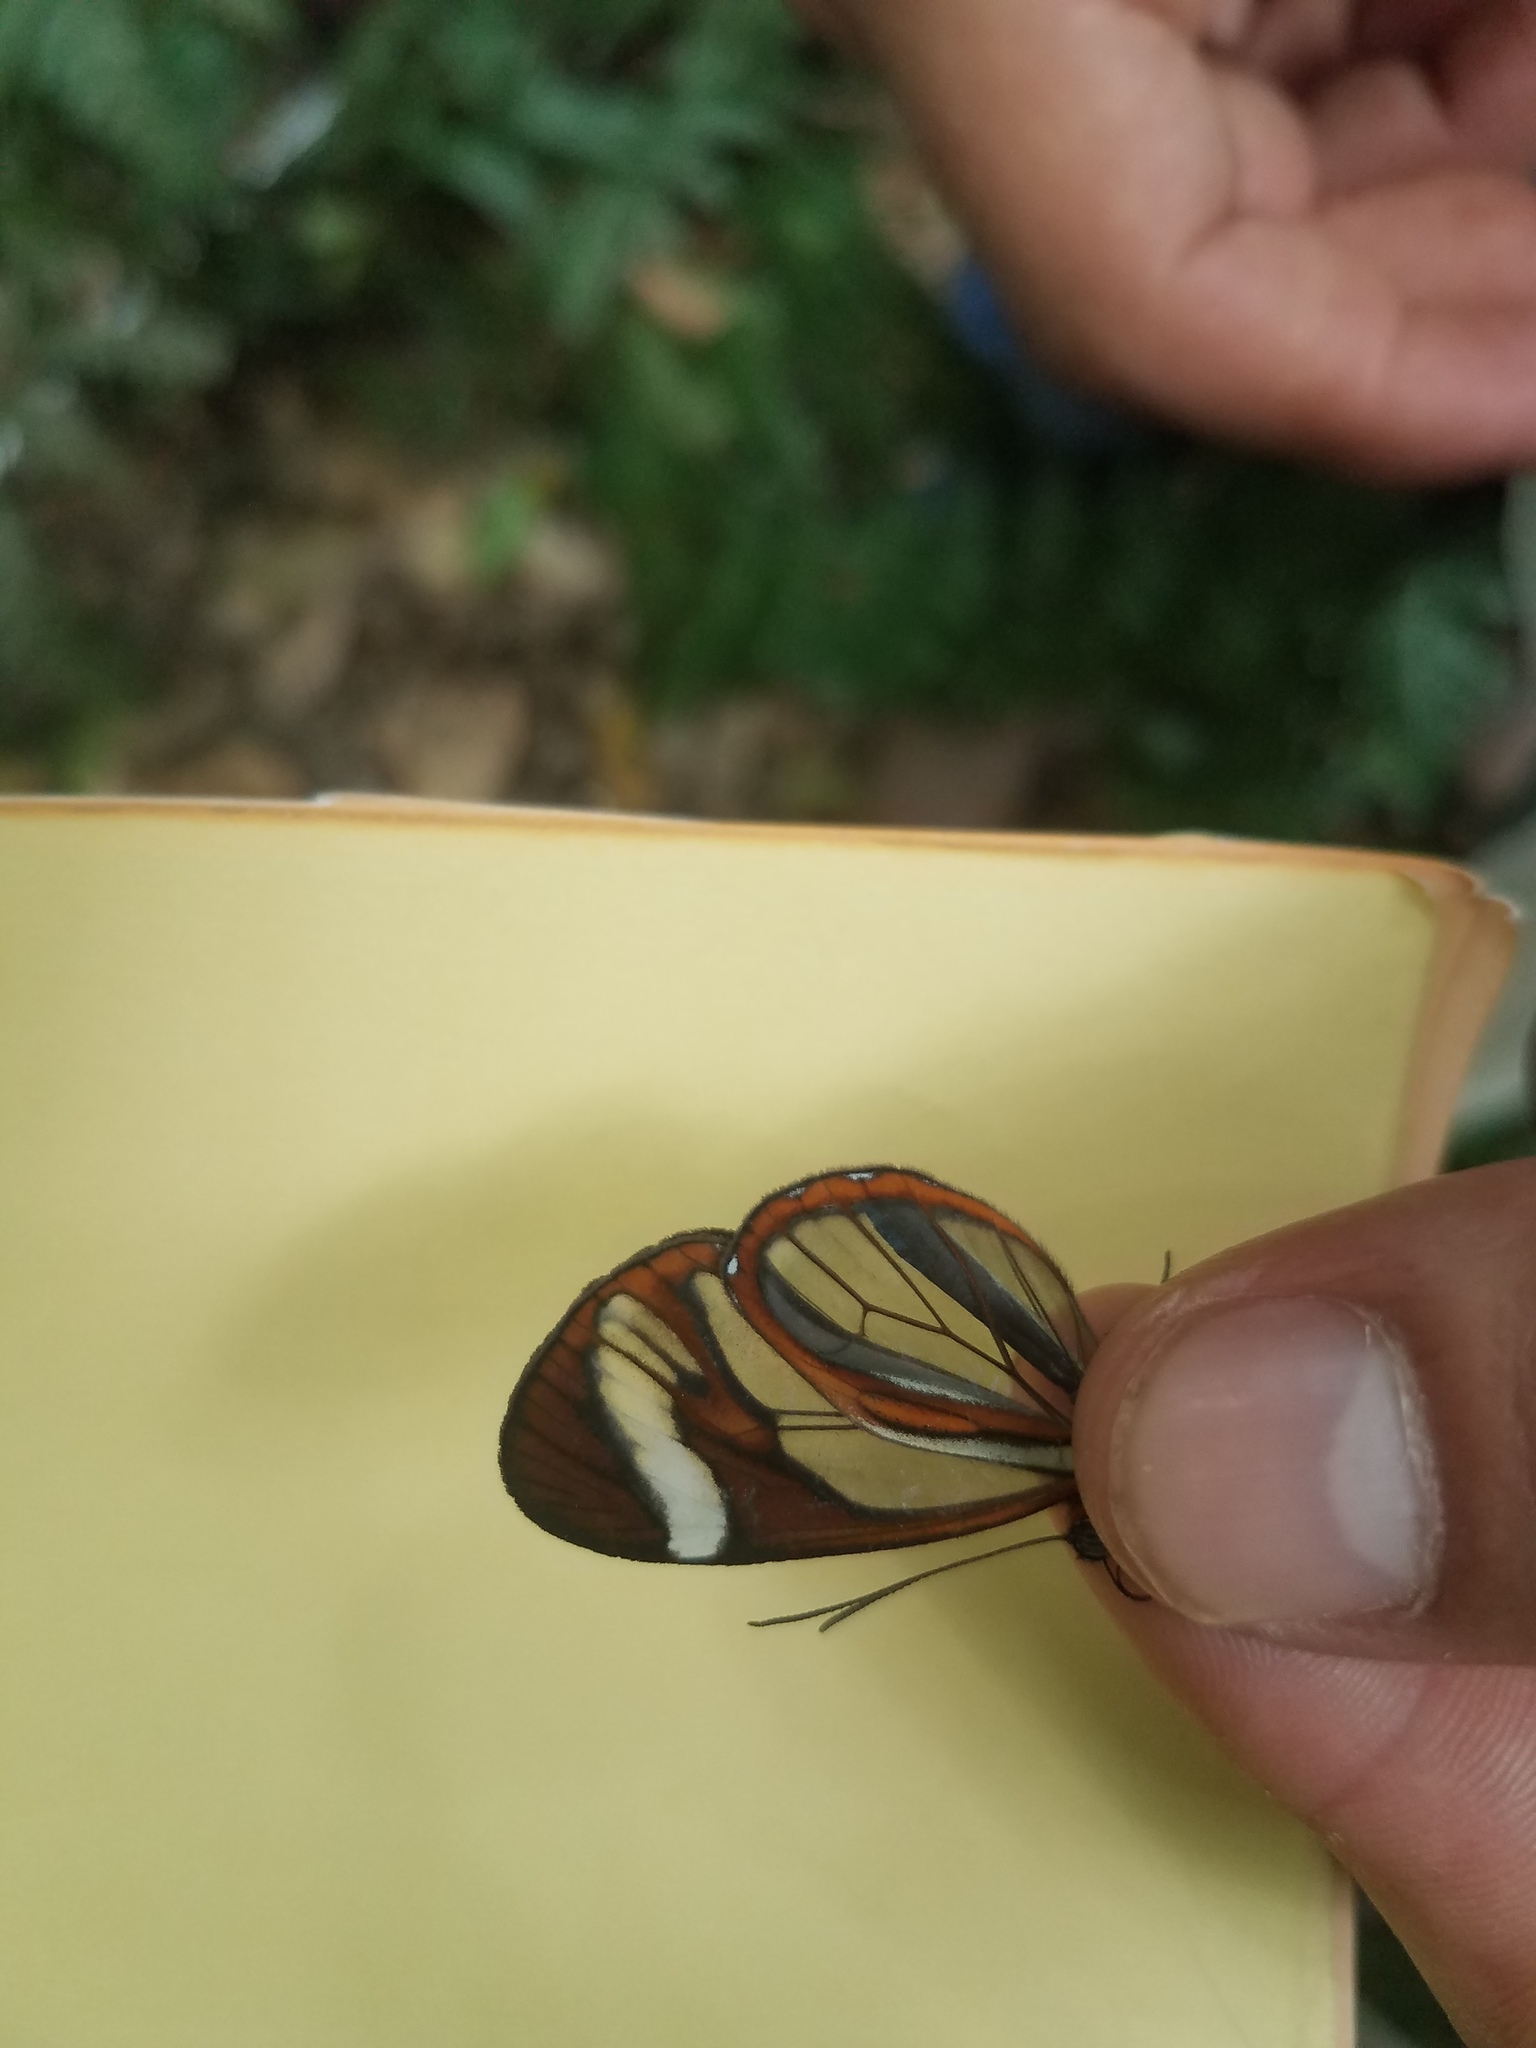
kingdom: Animalia
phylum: Arthropoda
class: Insecta
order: Lepidoptera
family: Nymphalidae
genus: Ithomia
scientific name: Ithomia patilla
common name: Patilla clearwing
